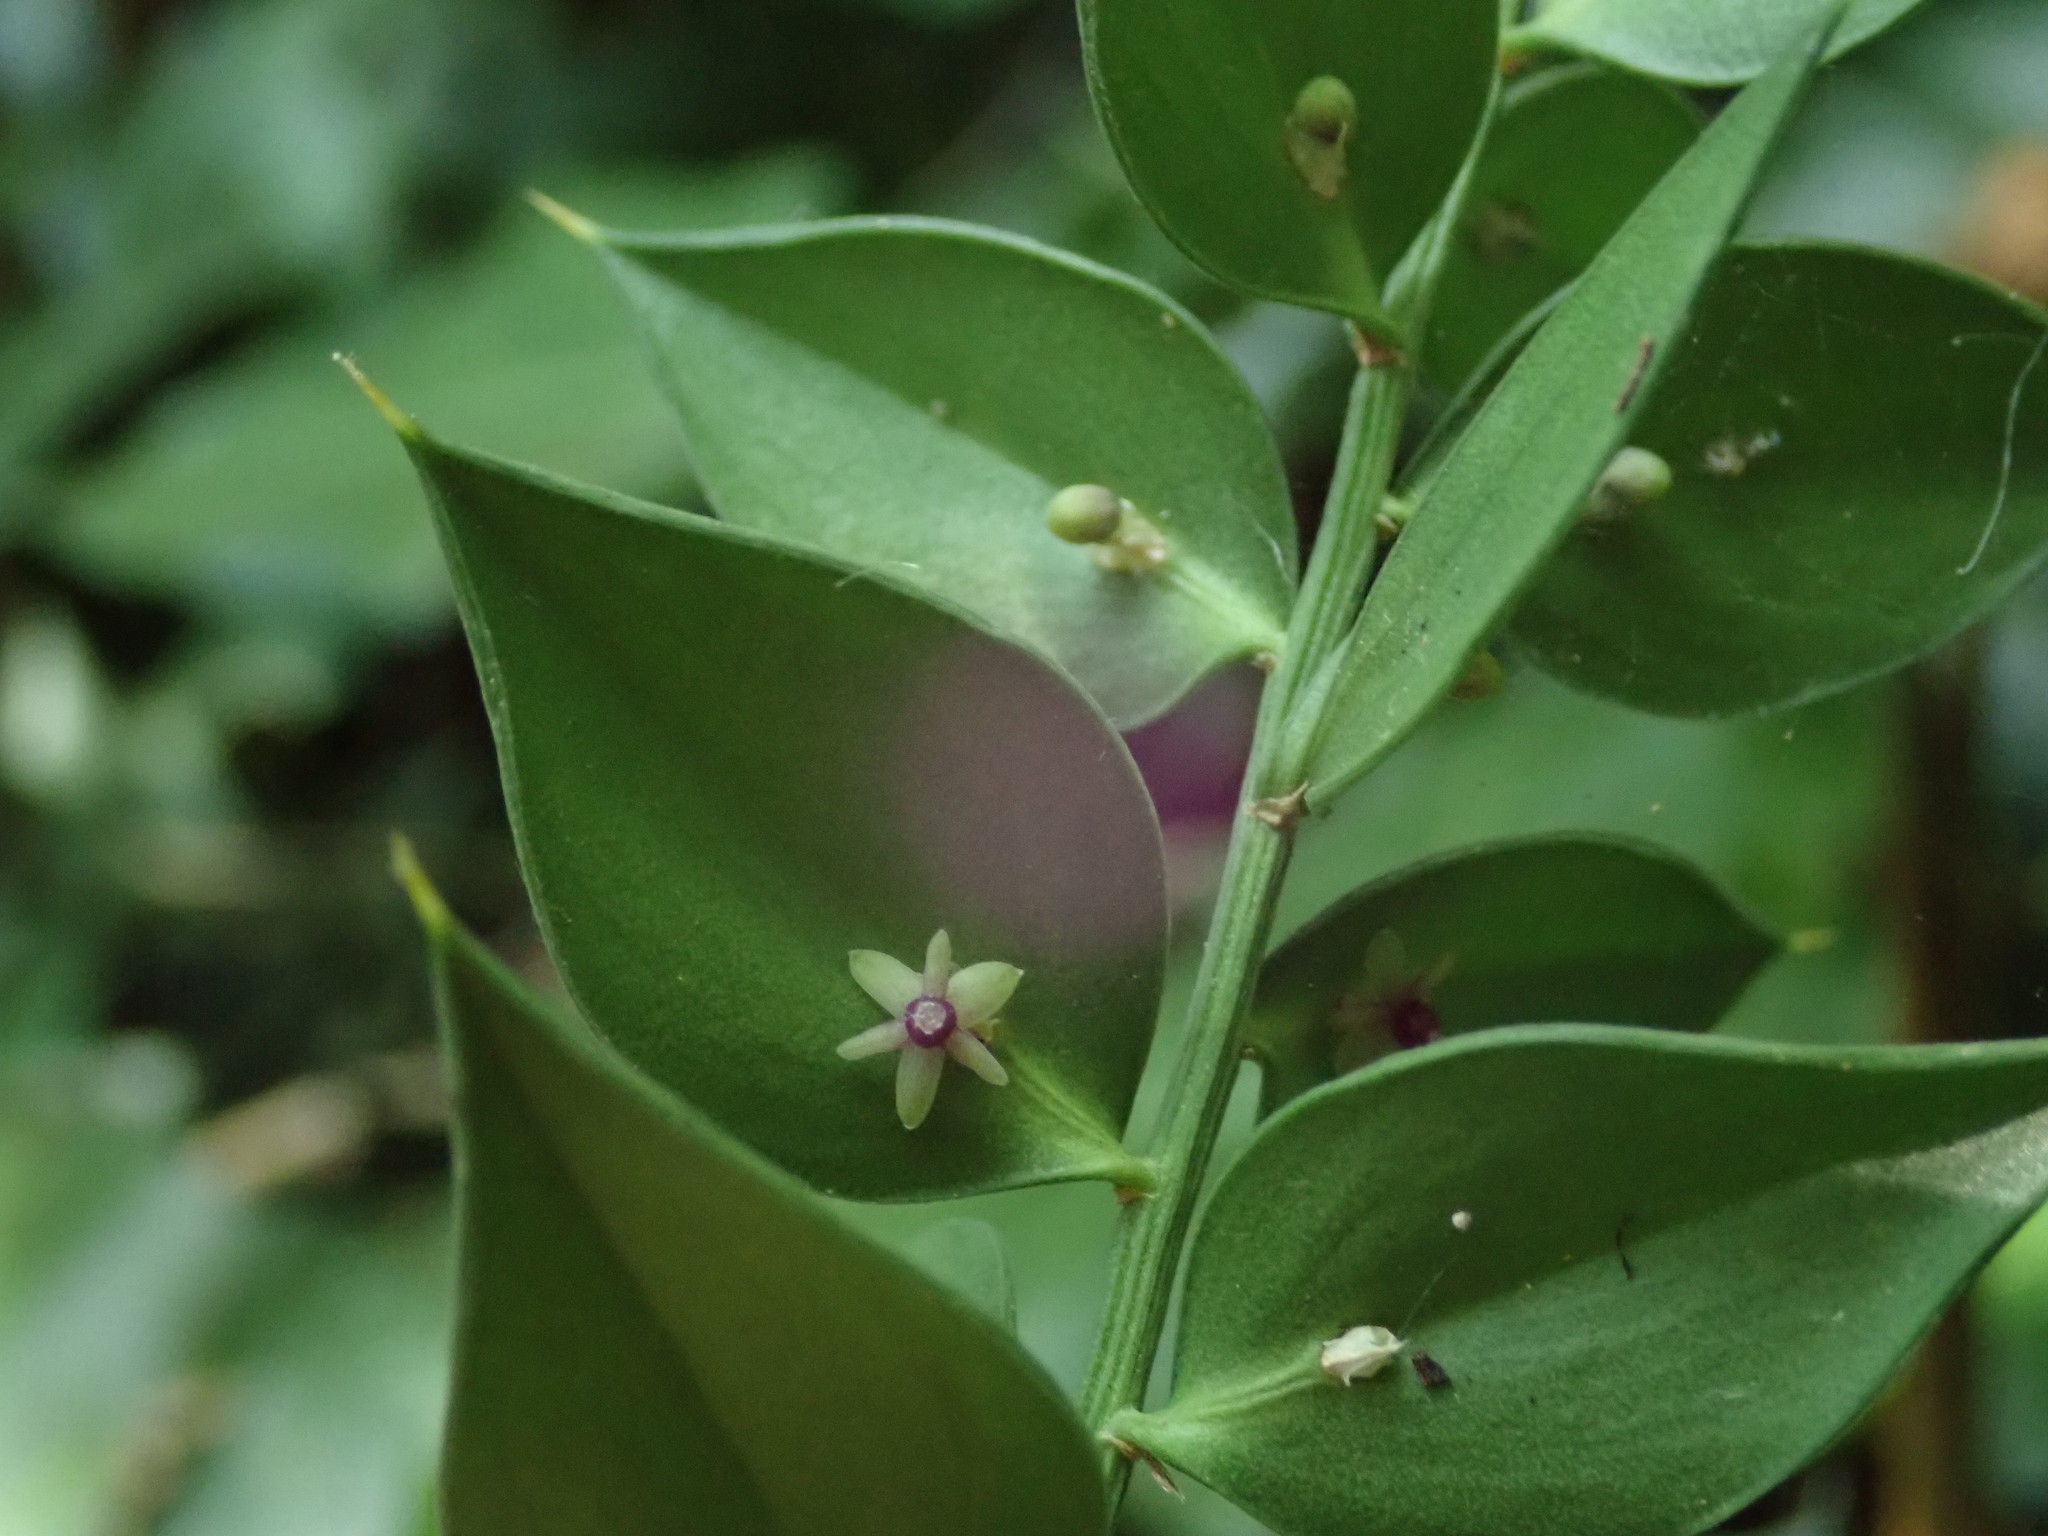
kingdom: Plantae
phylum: Tracheophyta
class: Liliopsida
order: Asparagales
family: Asparagaceae
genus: Ruscus
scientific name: Ruscus aculeatus
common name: Butcher's-broom
